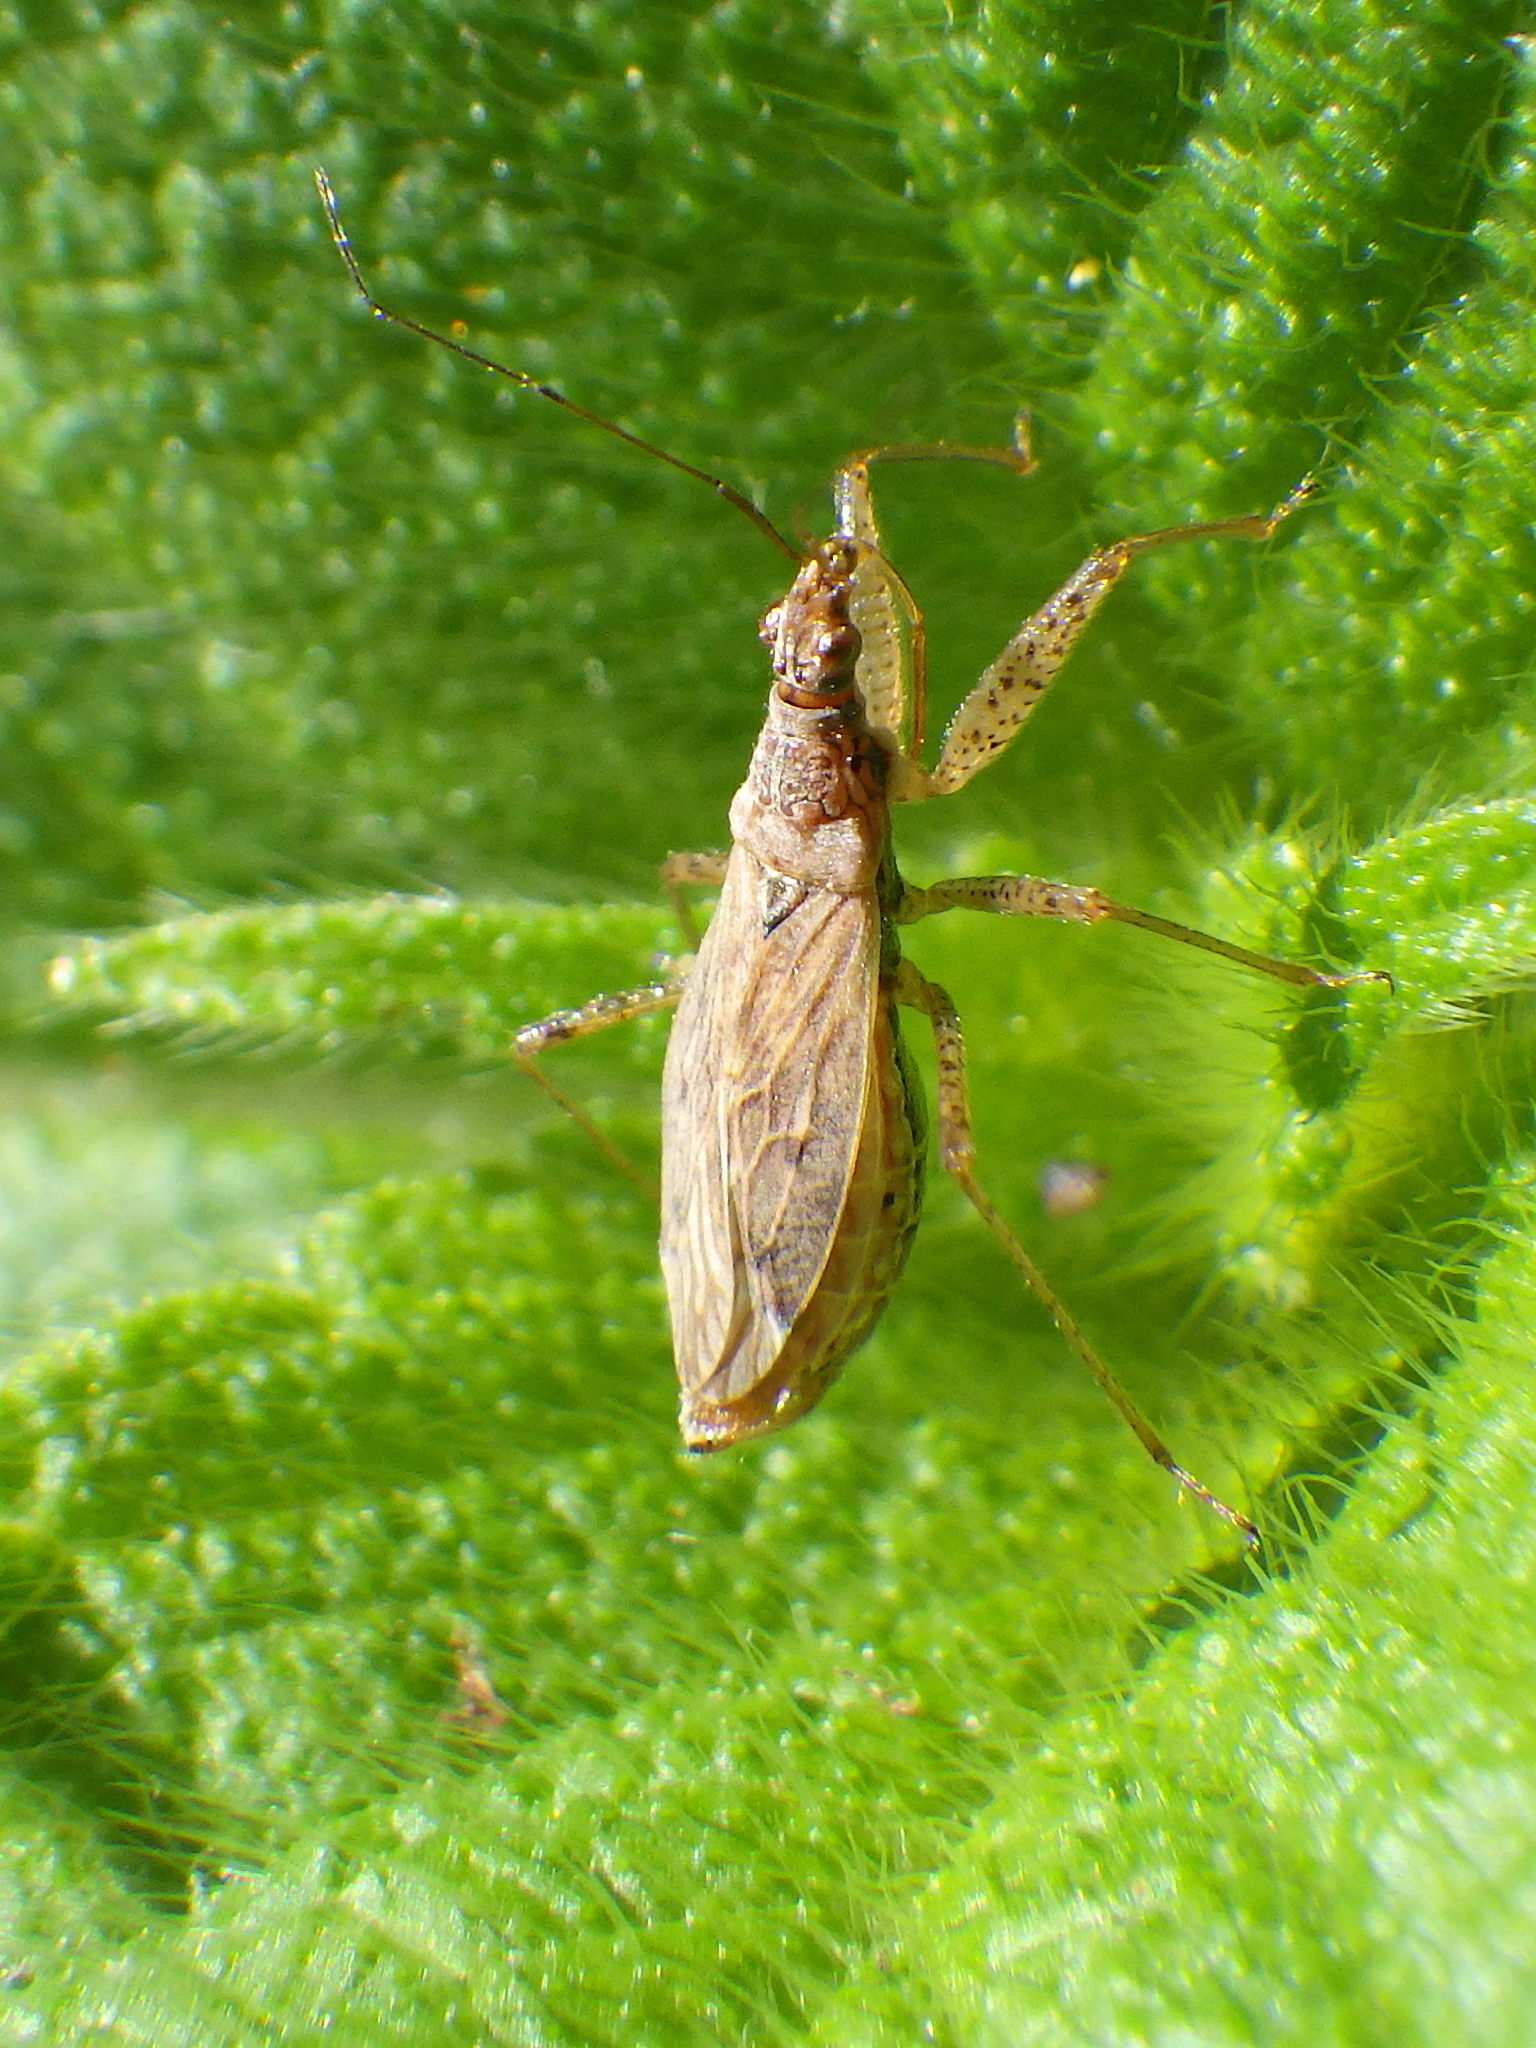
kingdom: Animalia
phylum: Arthropoda
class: Insecta
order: Hemiptera
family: Nabidae
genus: Nabis
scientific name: Nabis roseipennis
